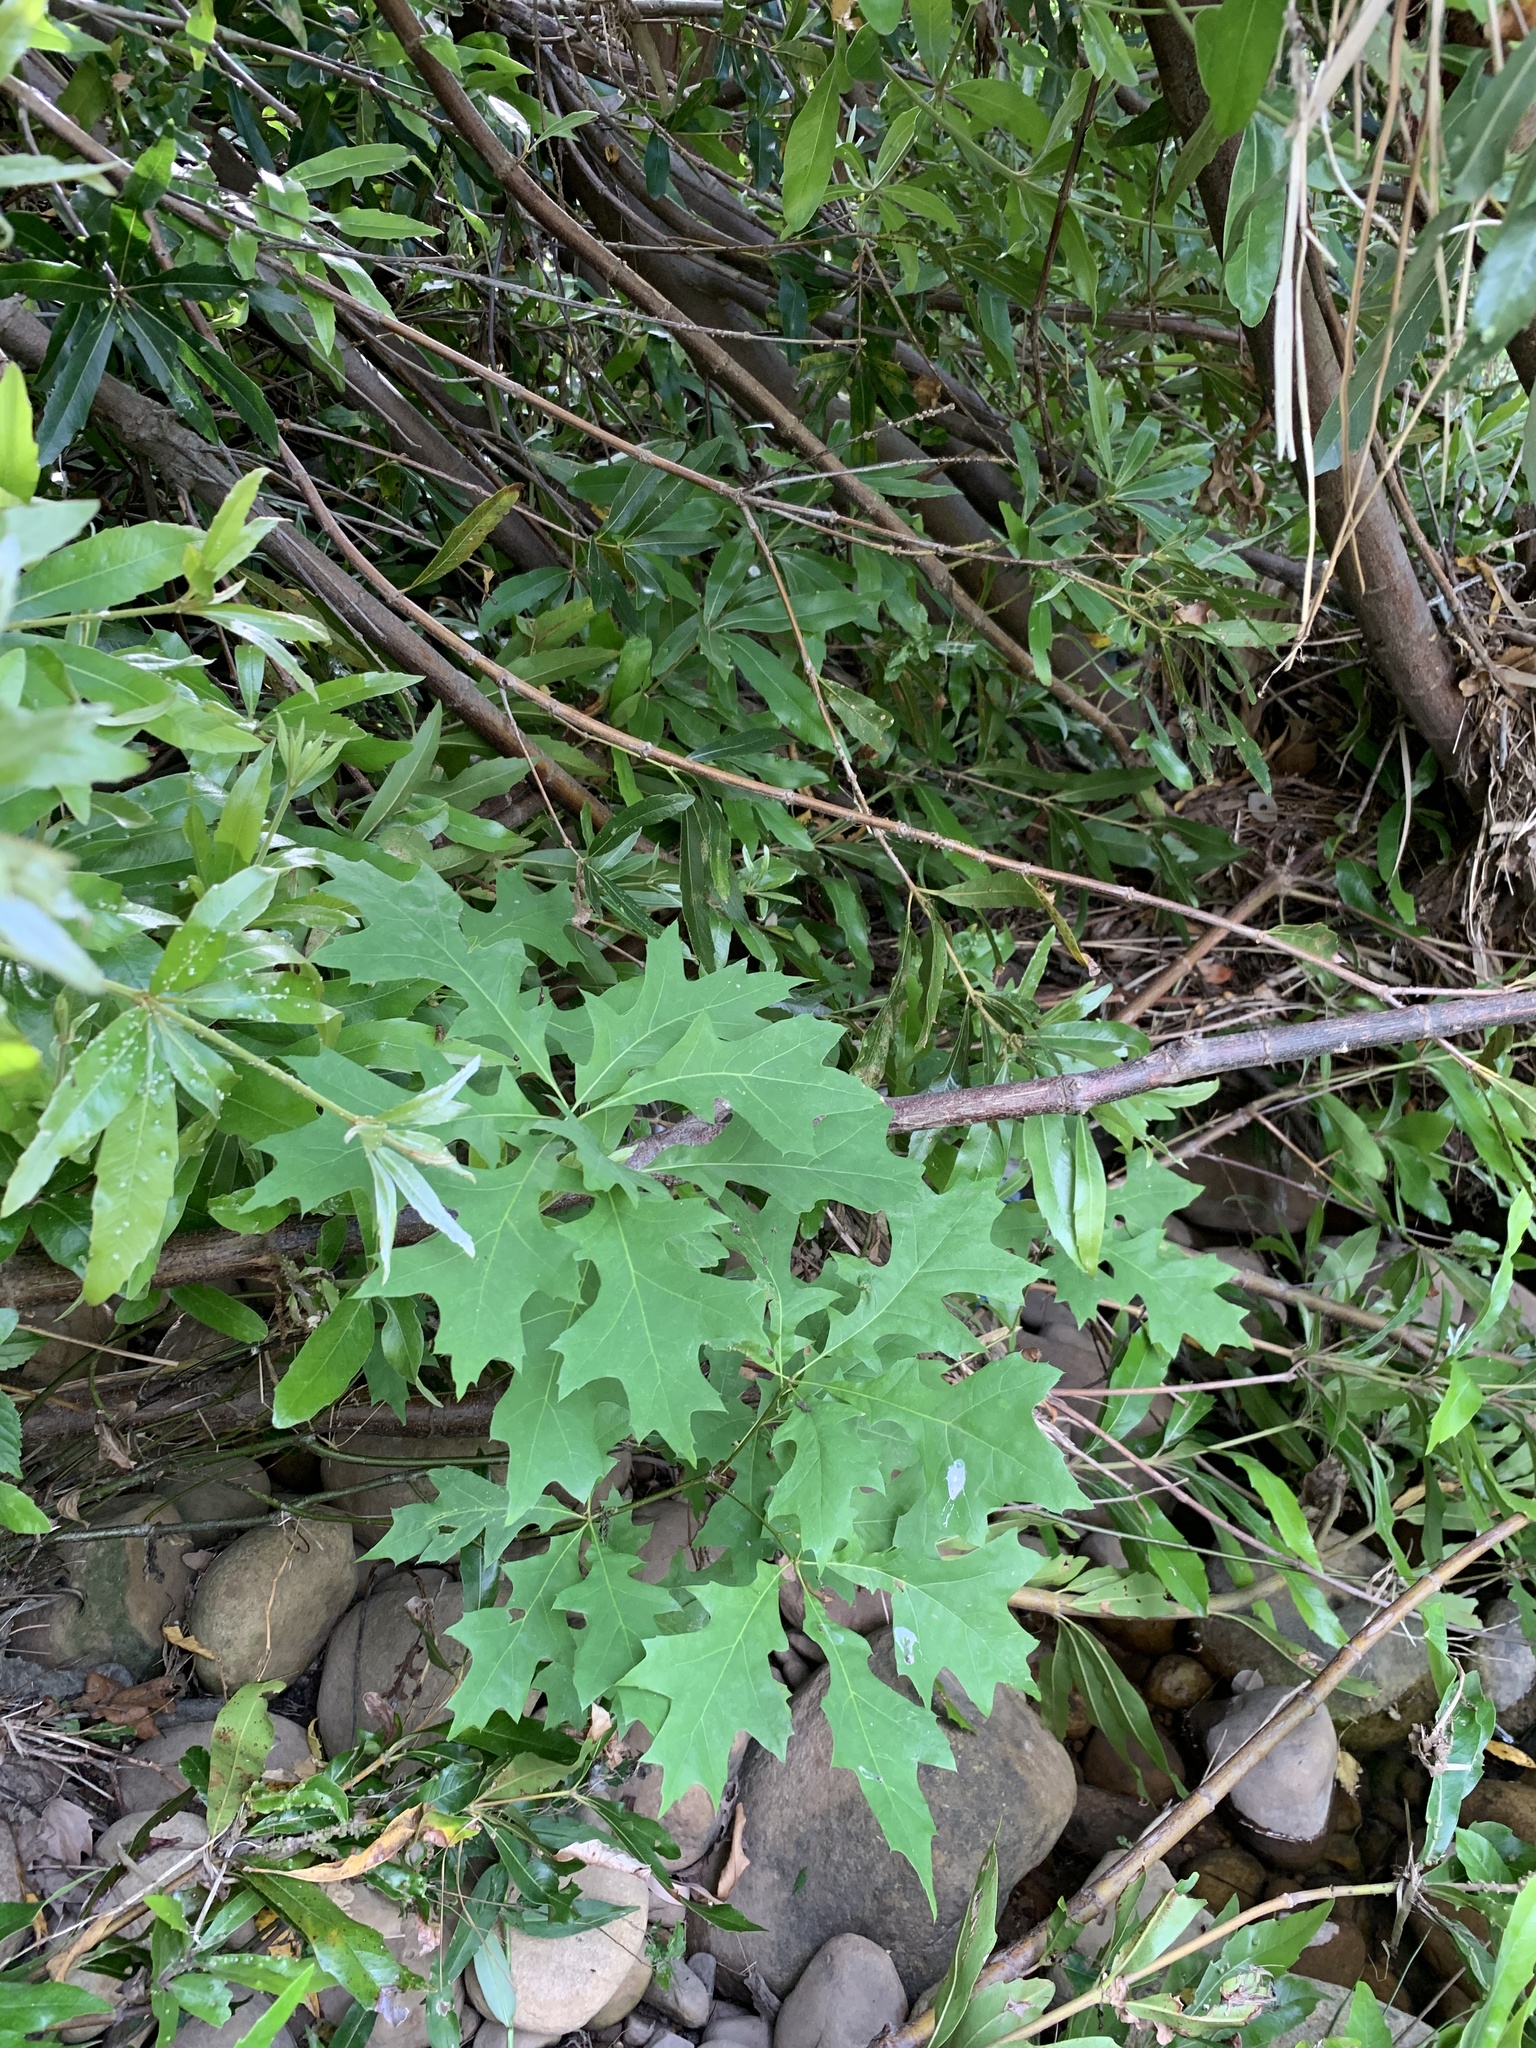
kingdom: Plantae
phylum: Tracheophyta
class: Magnoliopsida
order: Fagales
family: Fagaceae
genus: Quercus
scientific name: Quercus palustris
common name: Pin oak
